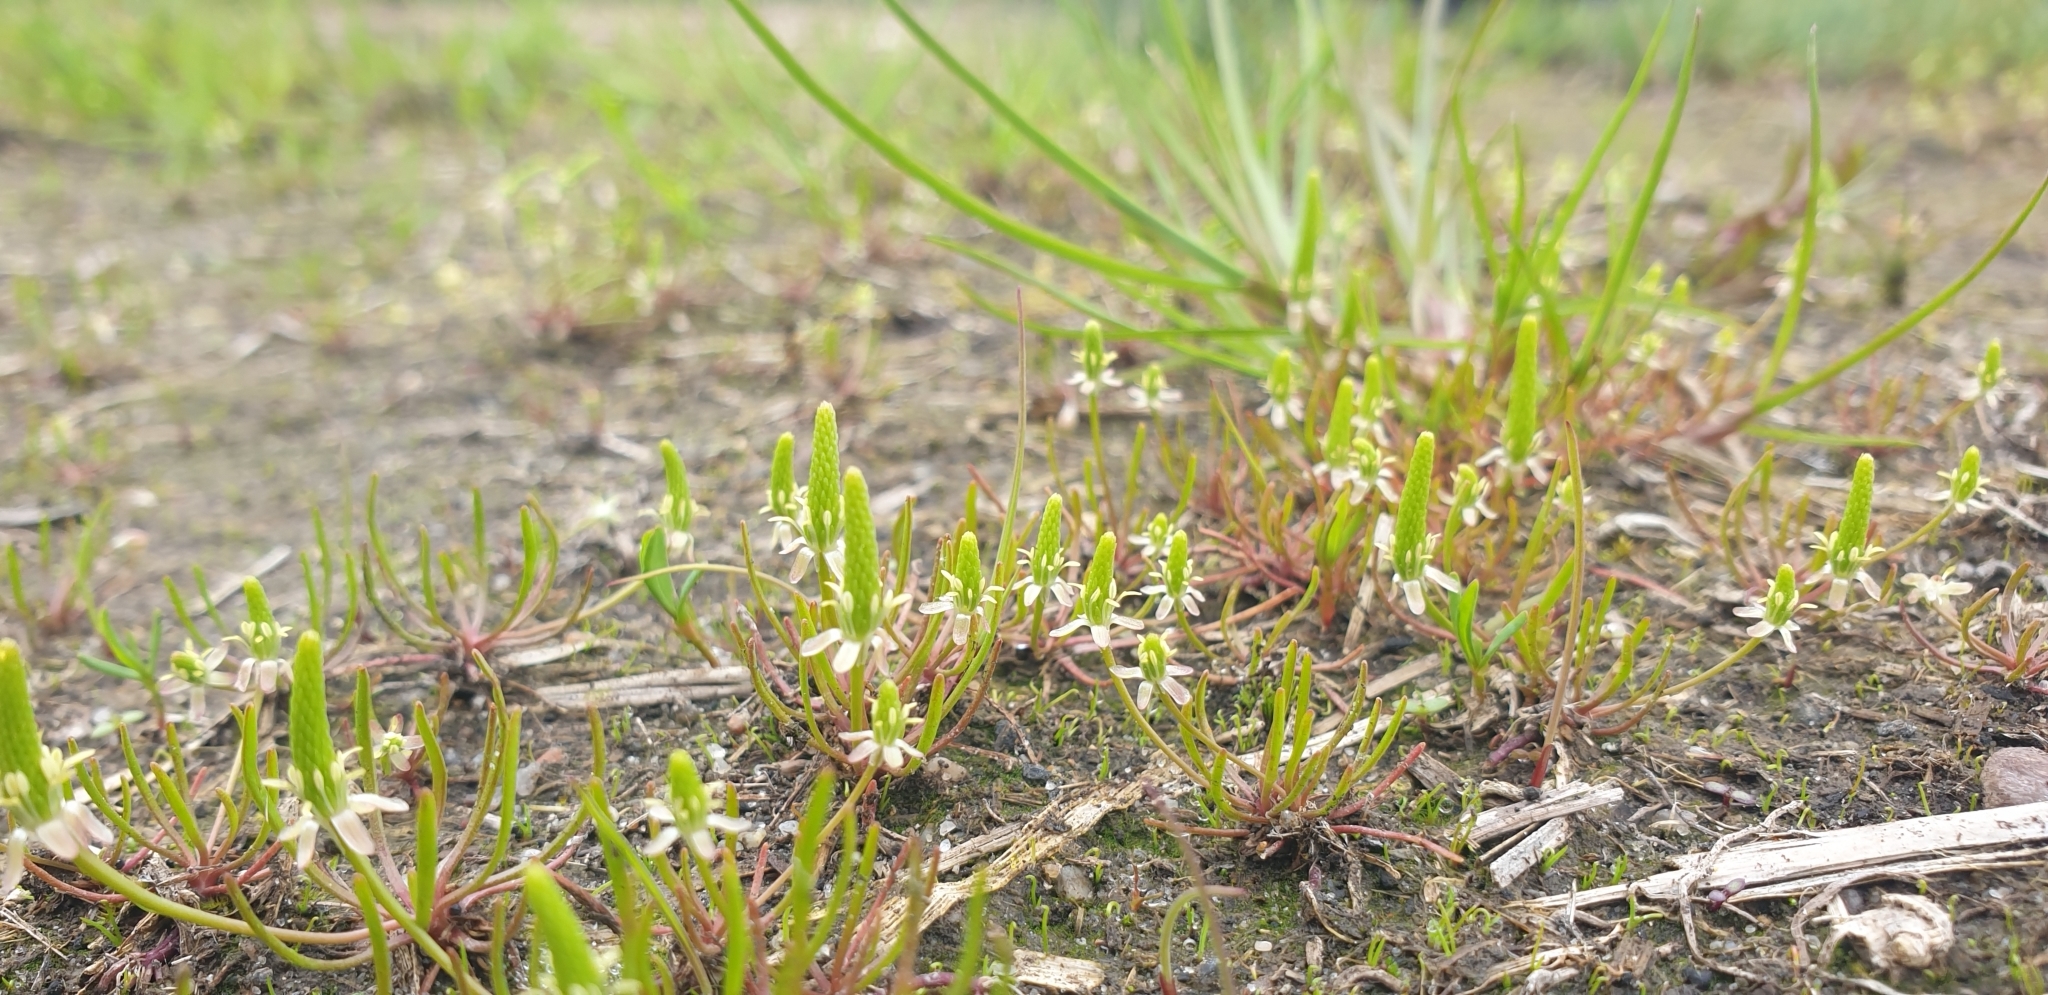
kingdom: Plantae
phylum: Tracheophyta
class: Magnoliopsida
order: Ranunculales
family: Ranunculaceae
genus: Myosurus
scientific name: Myosurus minimus
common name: Mousetail
